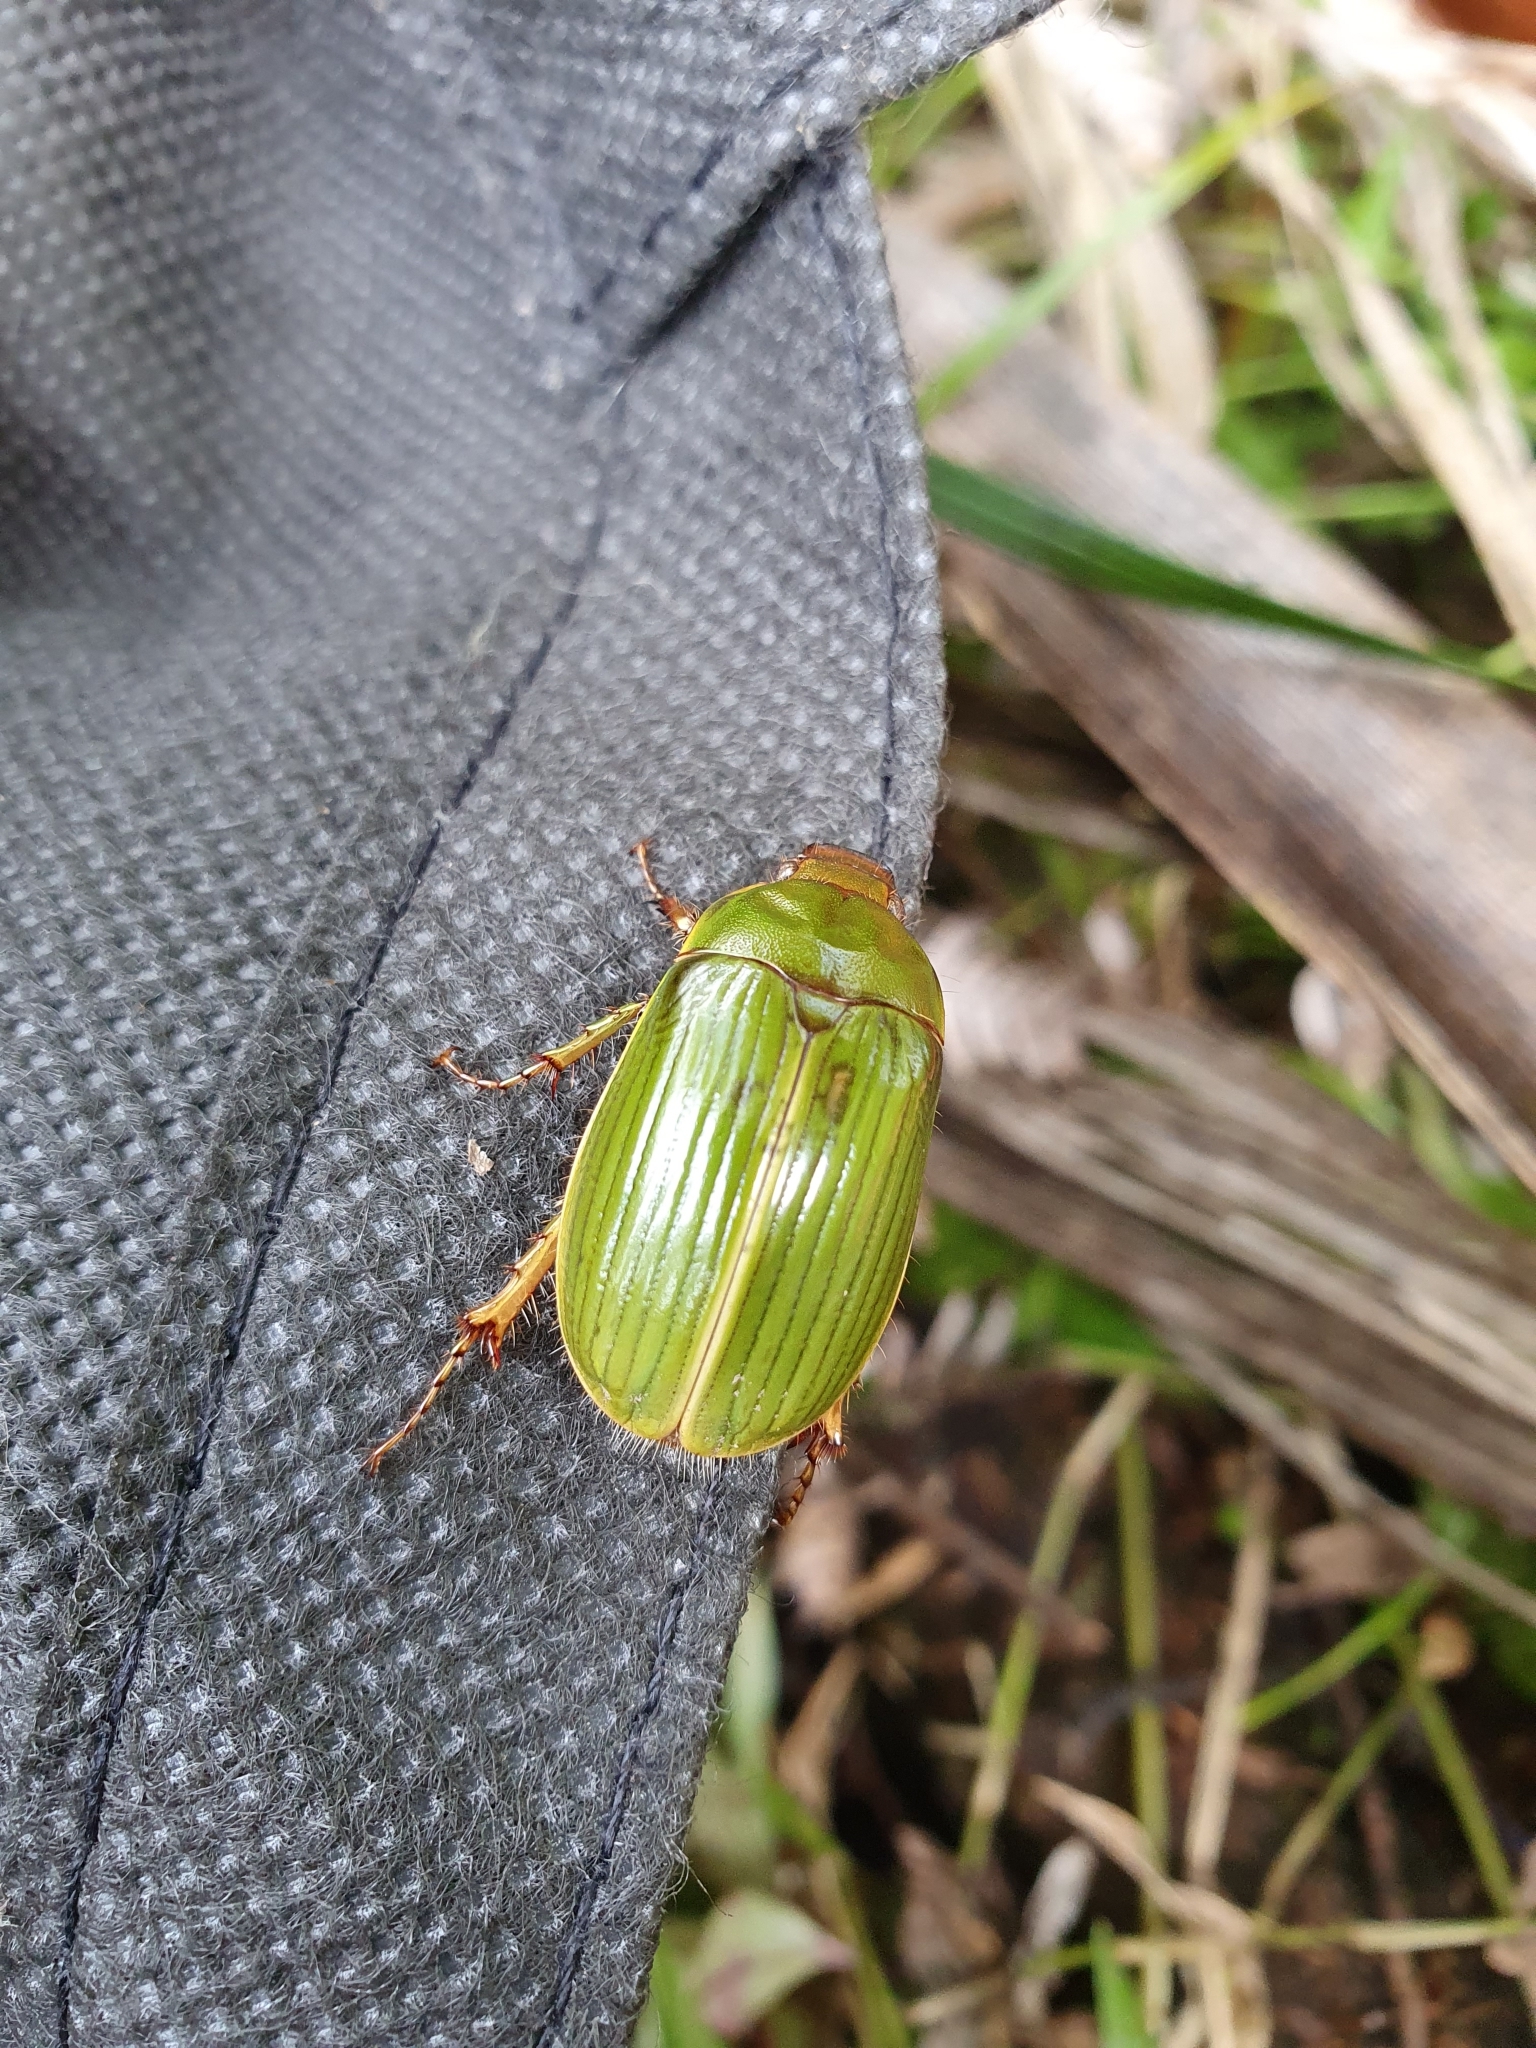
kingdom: Animalia
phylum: Arthropoda
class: Insecta
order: Coleoptera
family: Scarabaeidae
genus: Stethaspis
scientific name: Stethaspis longicornis
